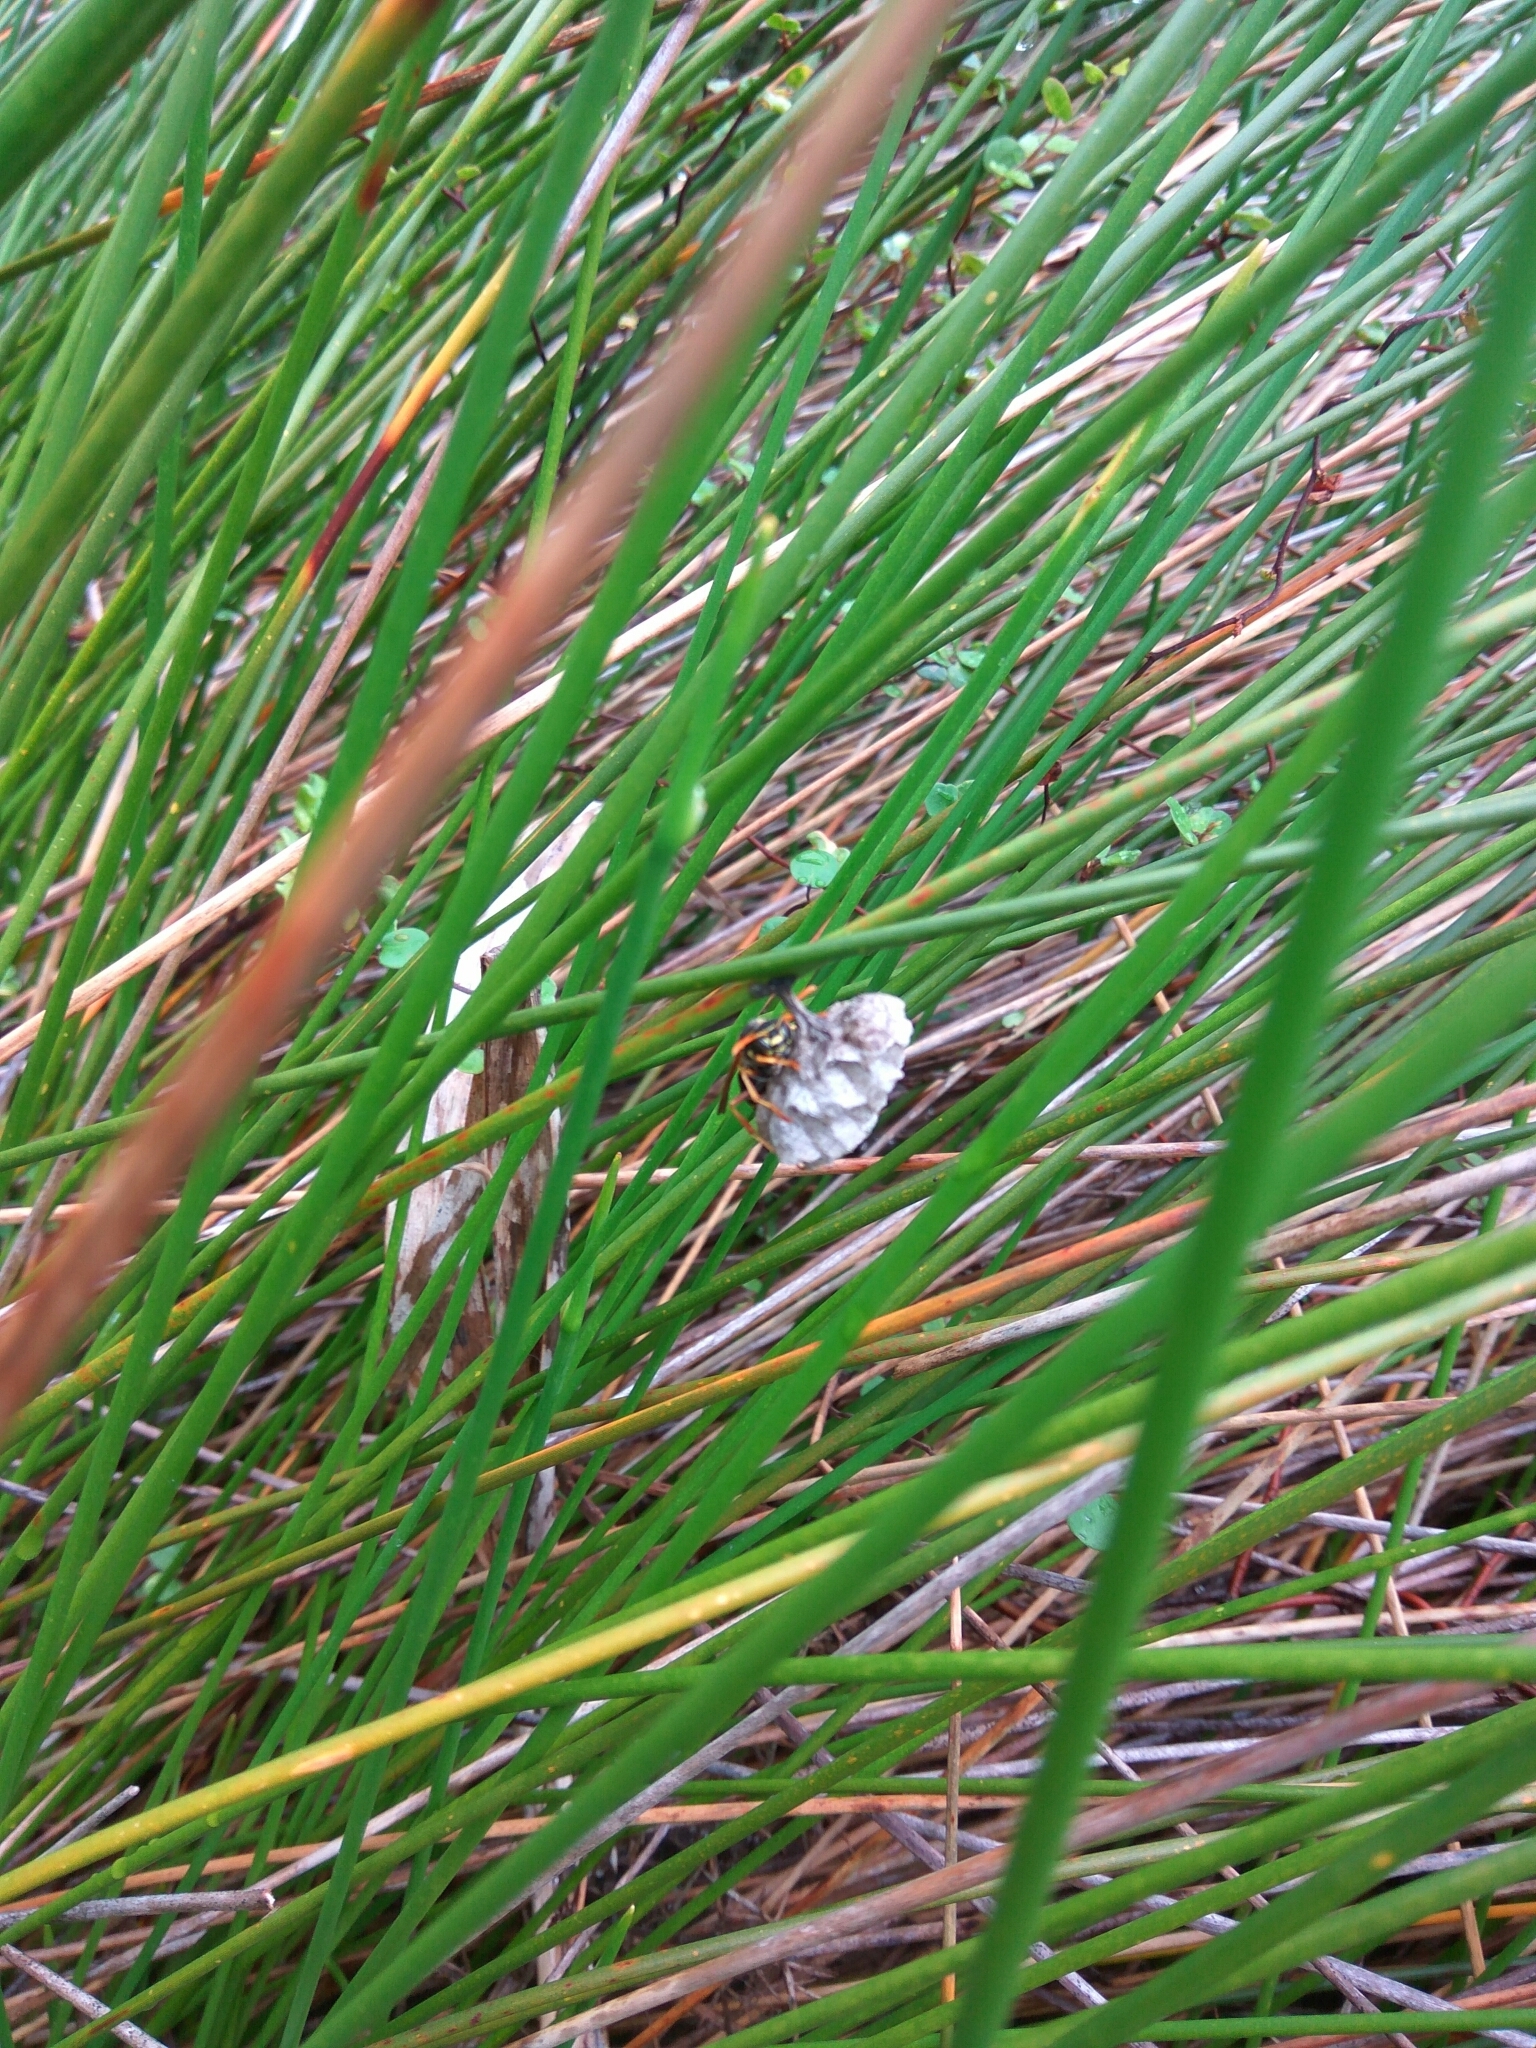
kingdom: Animalia
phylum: Arthropoda
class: Insecta
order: Hymenoptera
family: Eumenidae
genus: Polistes
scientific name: Polistes chinensis
